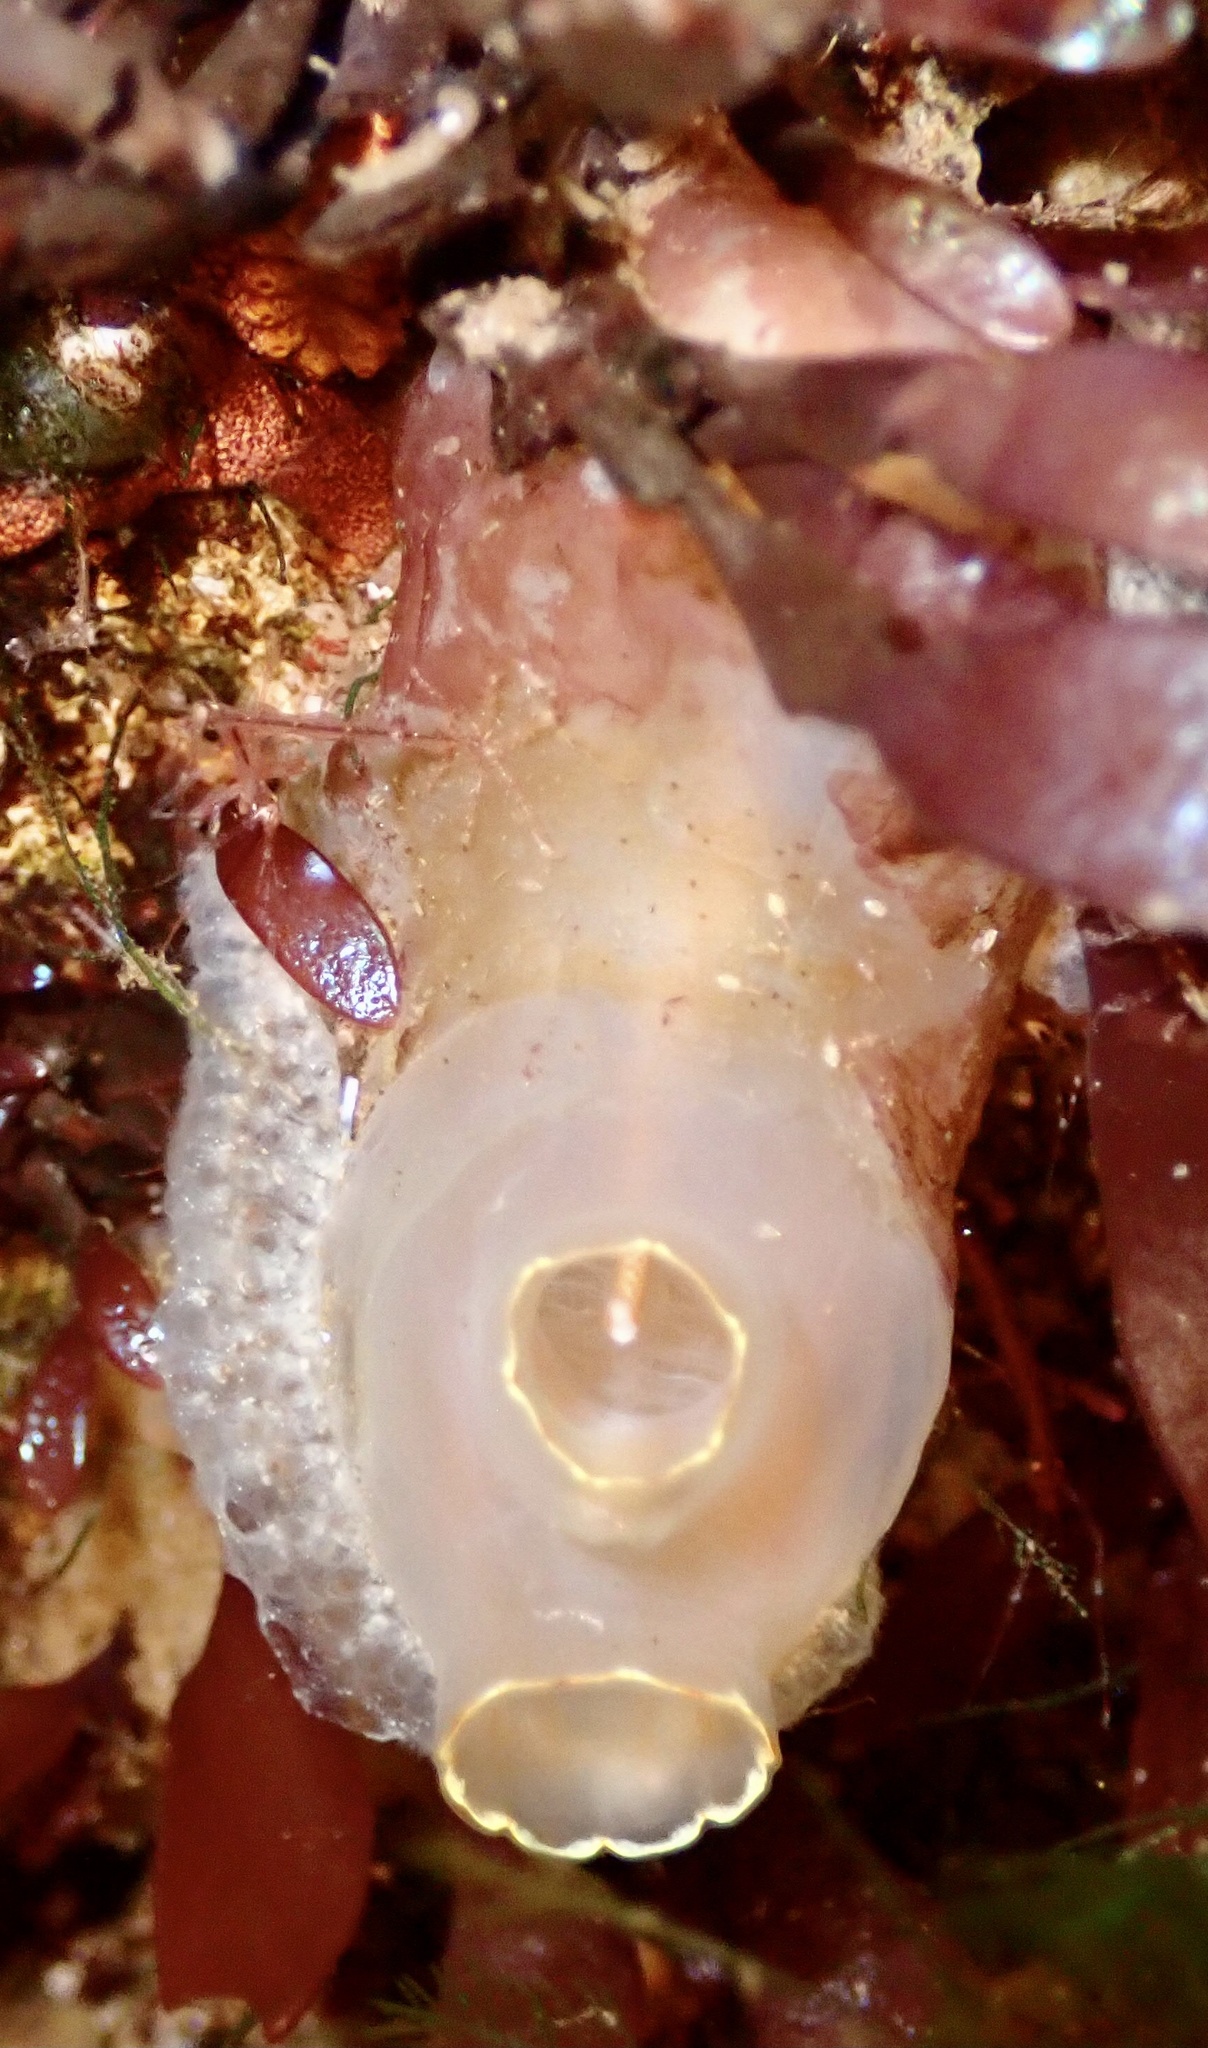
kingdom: Animalia
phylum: Chordata
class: Ascidiacea
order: Phlebobranchia
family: Cionidae
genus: Ciona
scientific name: Ciona intestinalis
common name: Vase tunicate
